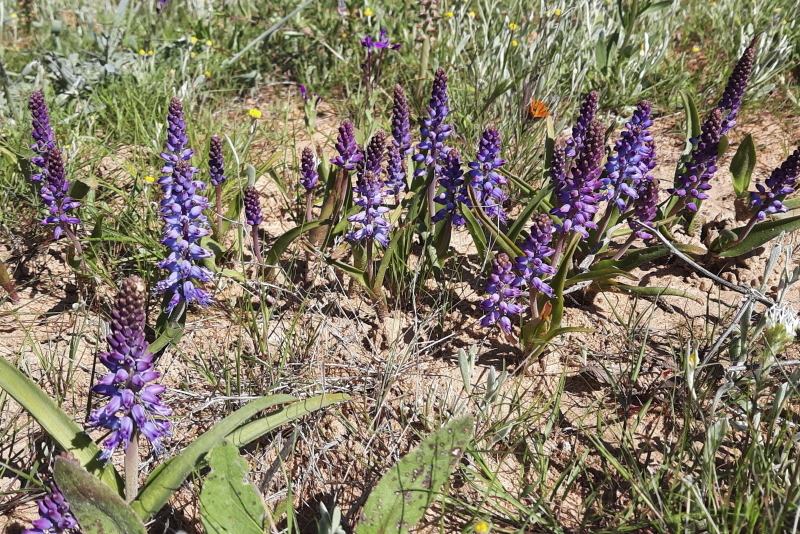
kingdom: Plantae
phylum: Tracheophyta
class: Liliopsida
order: Asparagales
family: Asparagaceae
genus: Lachenalia
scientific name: Lachenalia pallida
